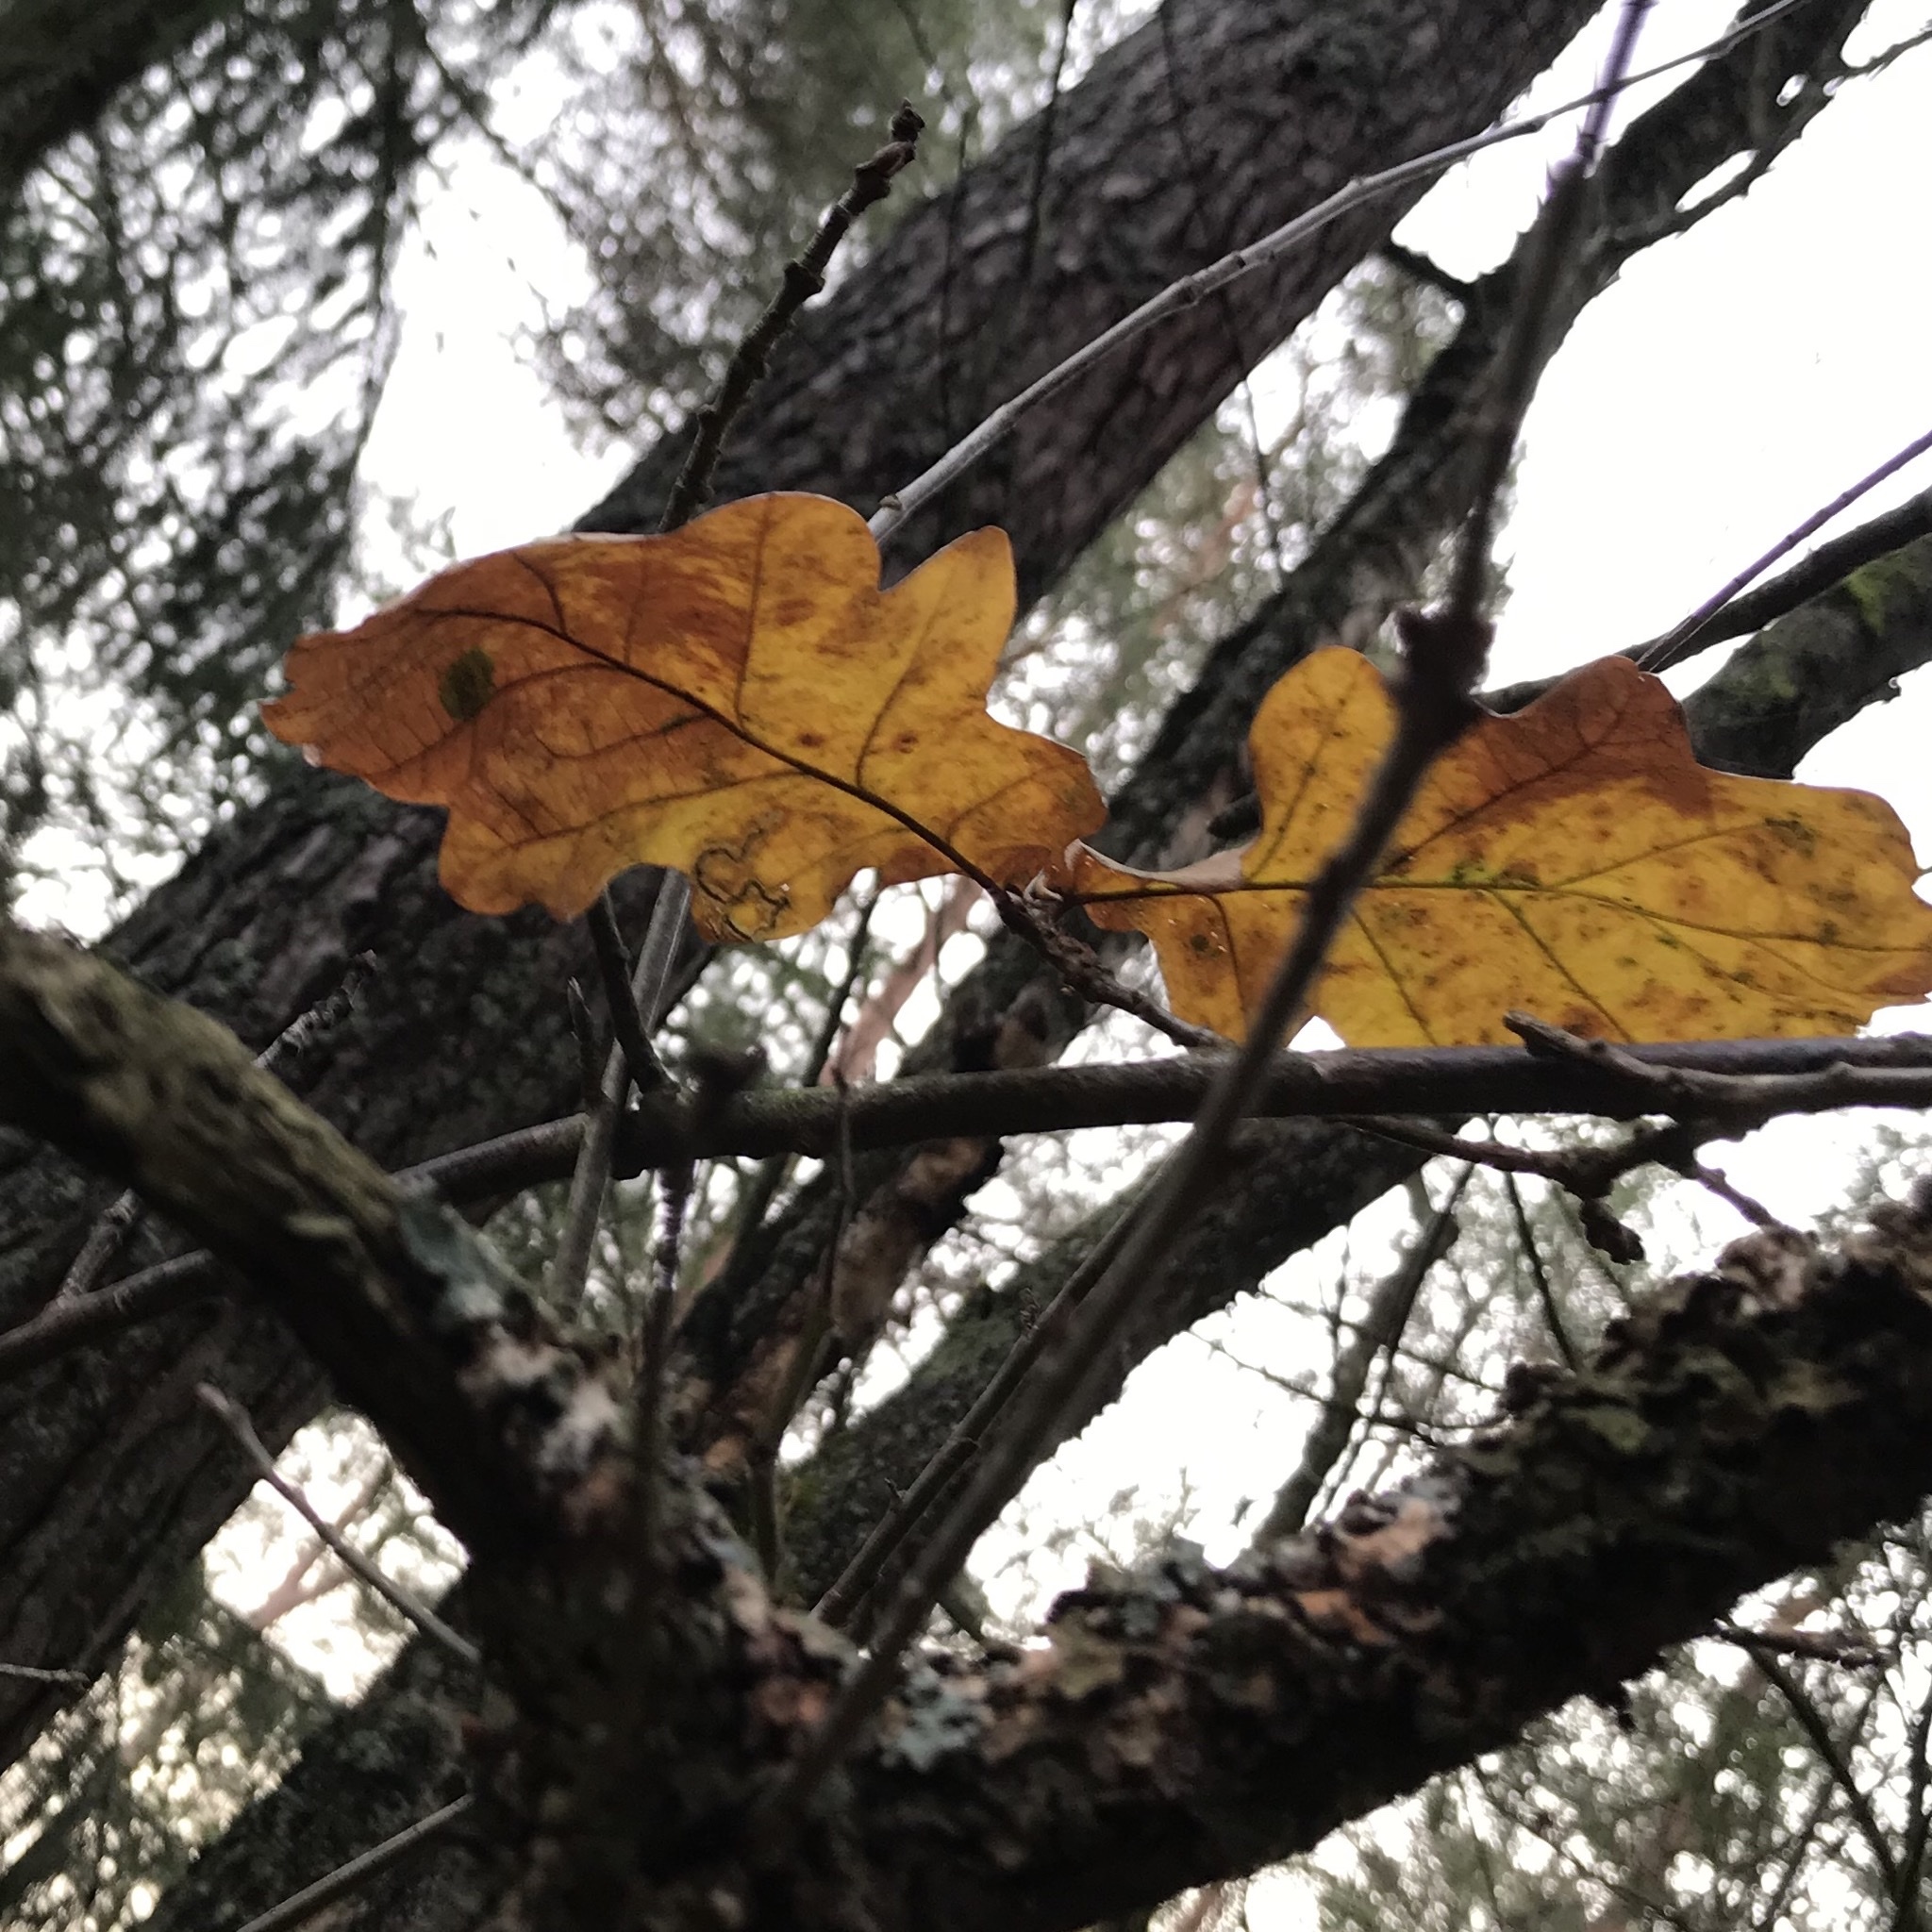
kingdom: Plantae
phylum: Tracheophyta
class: Magnoliopsida
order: Fagales
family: Fagaceae
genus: Quercus
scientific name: Quercus robur
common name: Pedunculate oak
